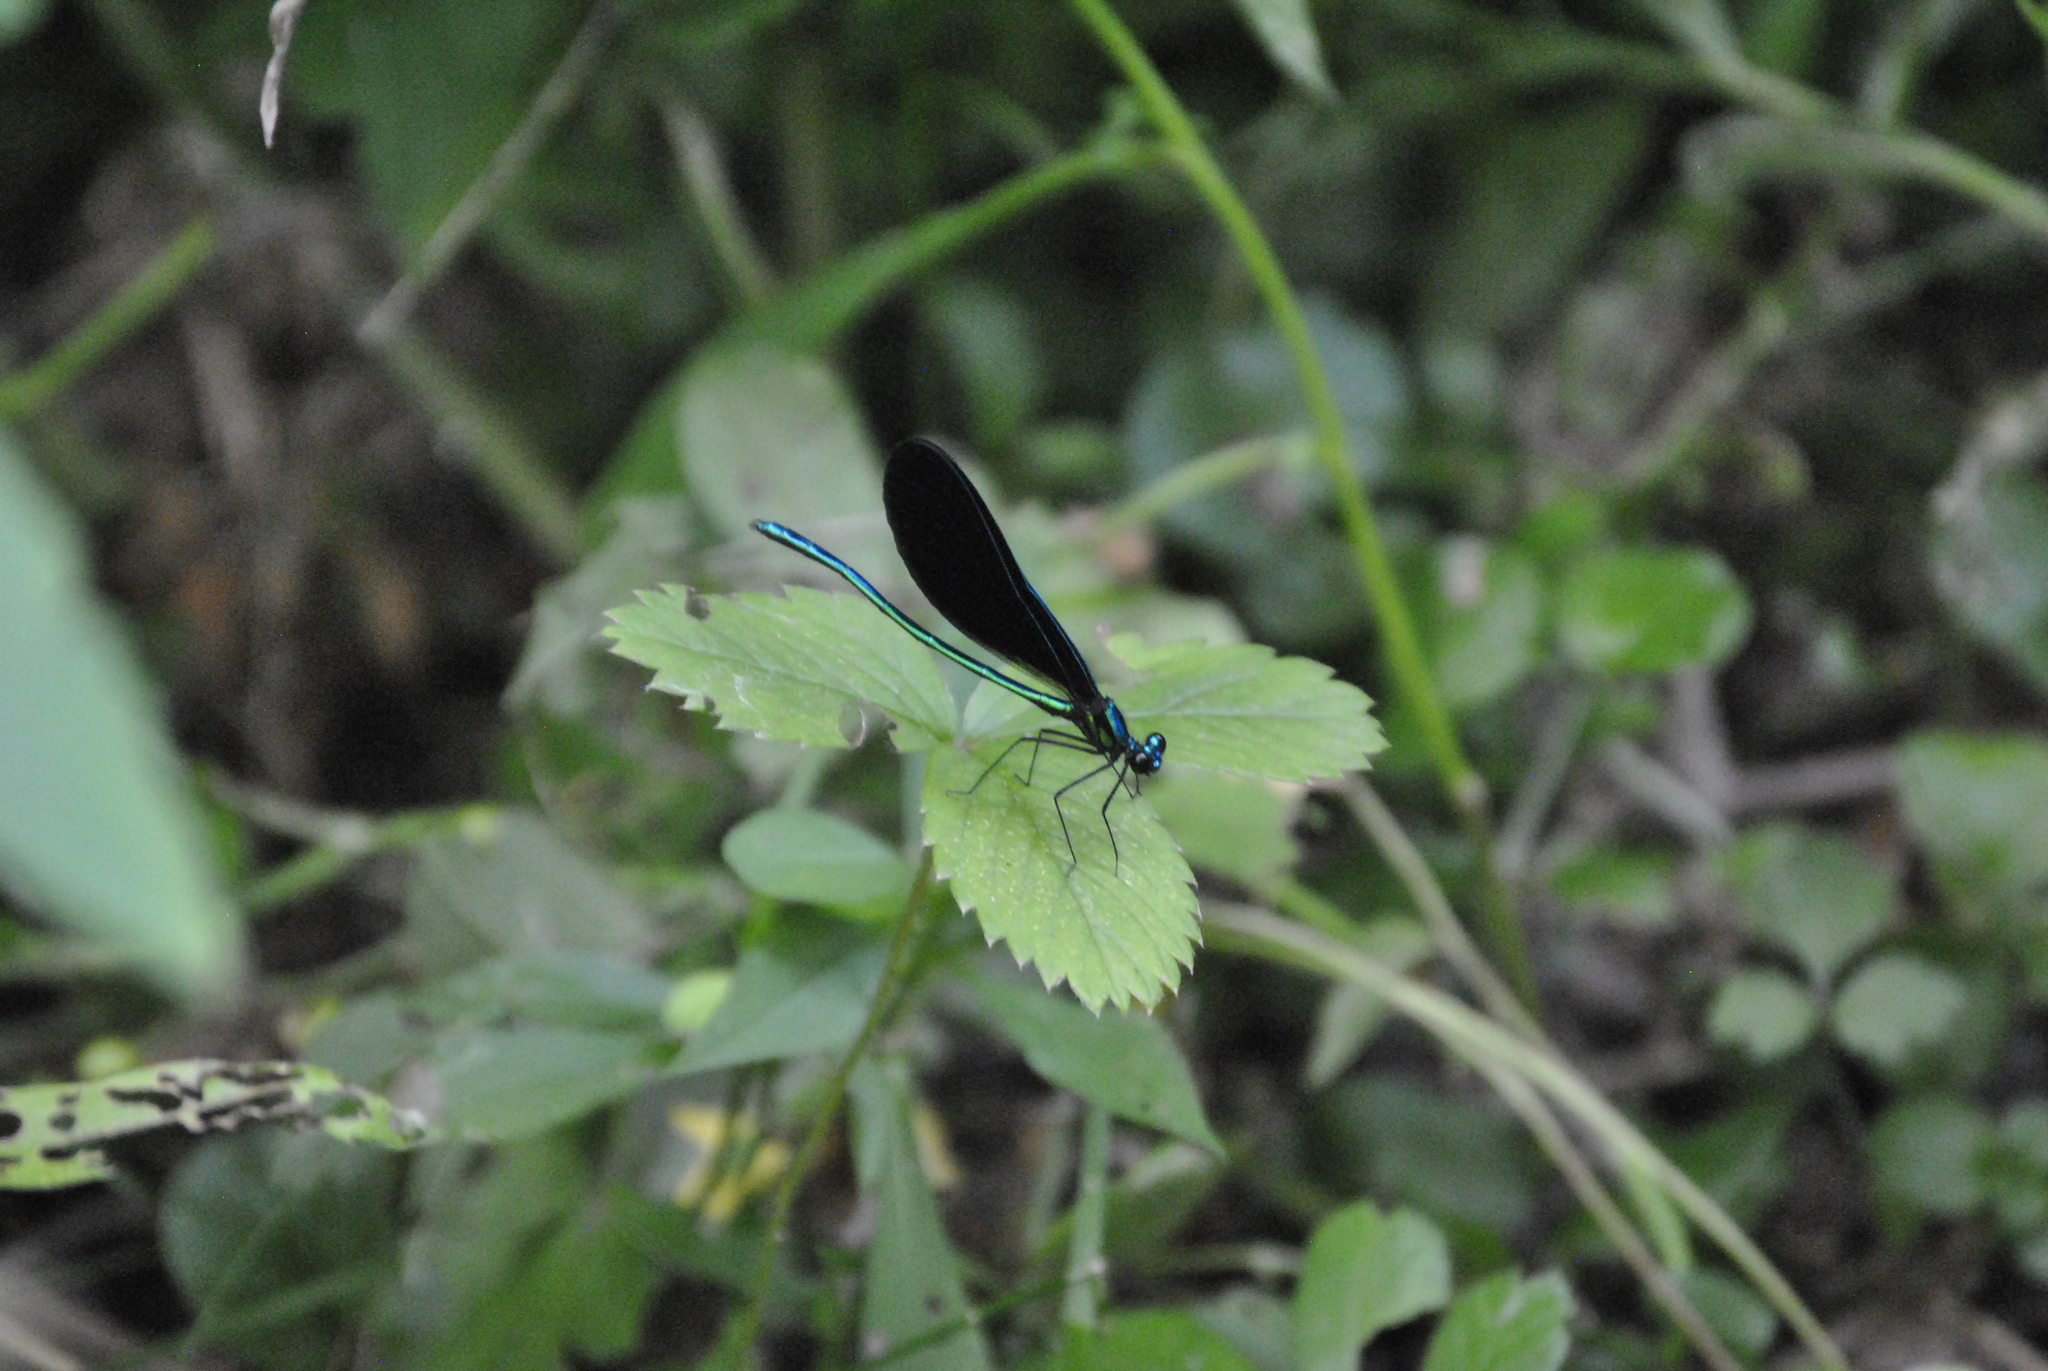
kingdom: Animalia
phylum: Arthropoda
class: Insecta
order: Odonata
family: Calopterygidae
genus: Calopteryx
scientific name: Calopteryx maculata
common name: Ebony jewelwing
